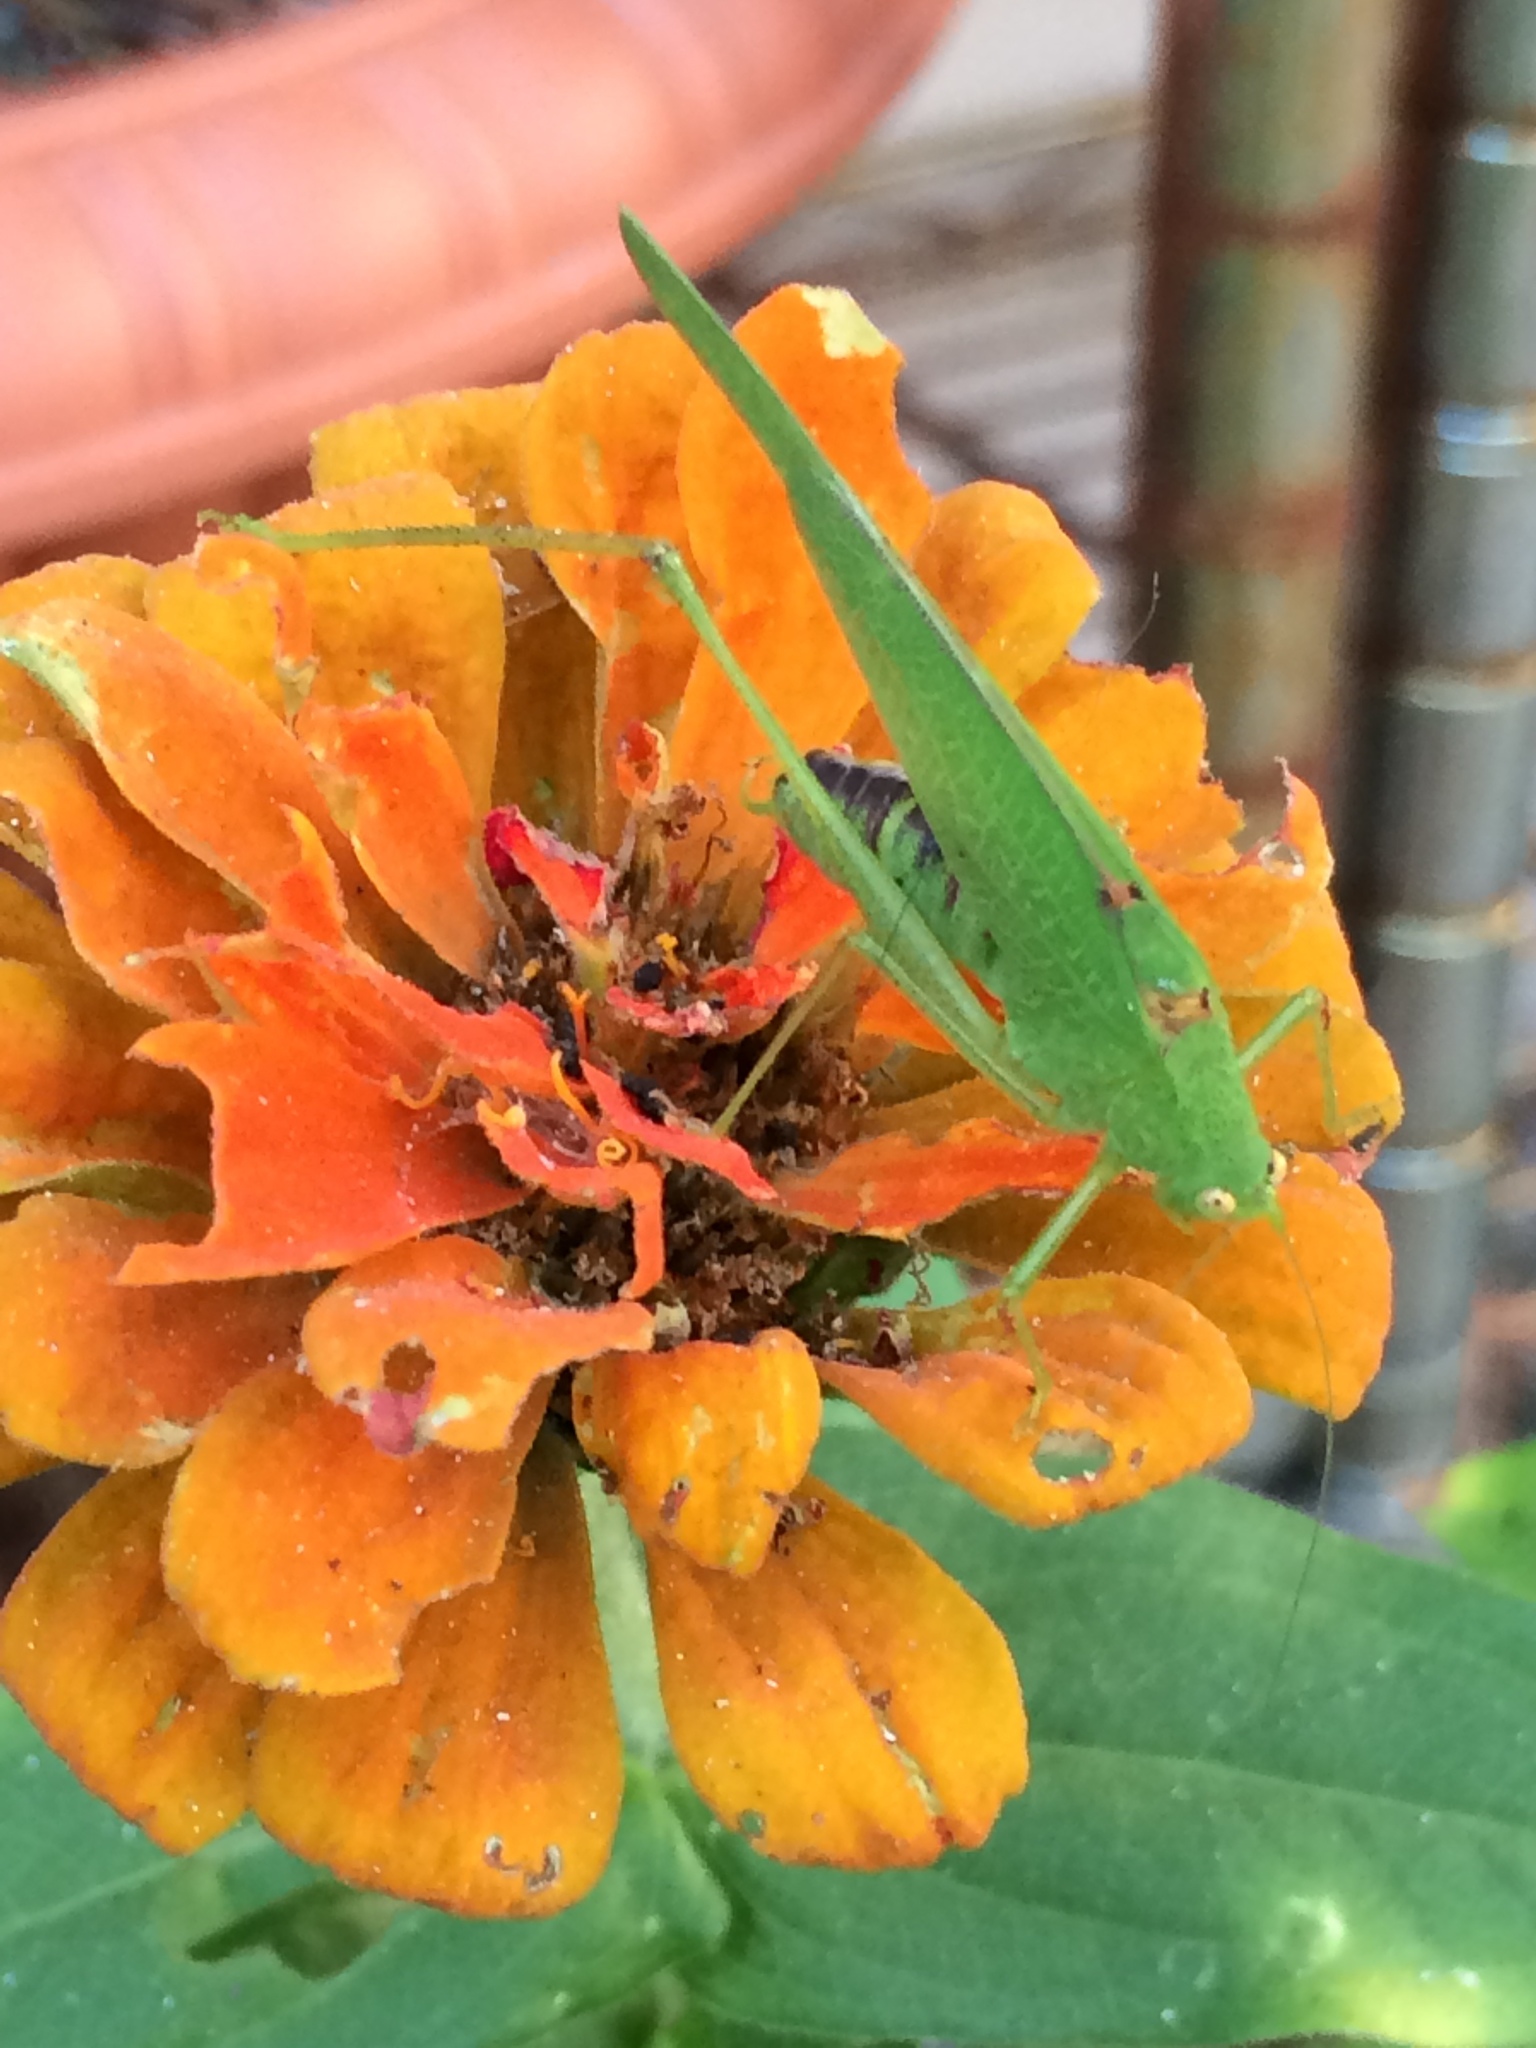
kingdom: Animalia
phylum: Arthropoda
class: Insecta
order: Orthoptera
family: Tettigoniidae
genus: Phaneroptera
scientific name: Phaneroptera nana
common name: Southern sickle bush-cricket
